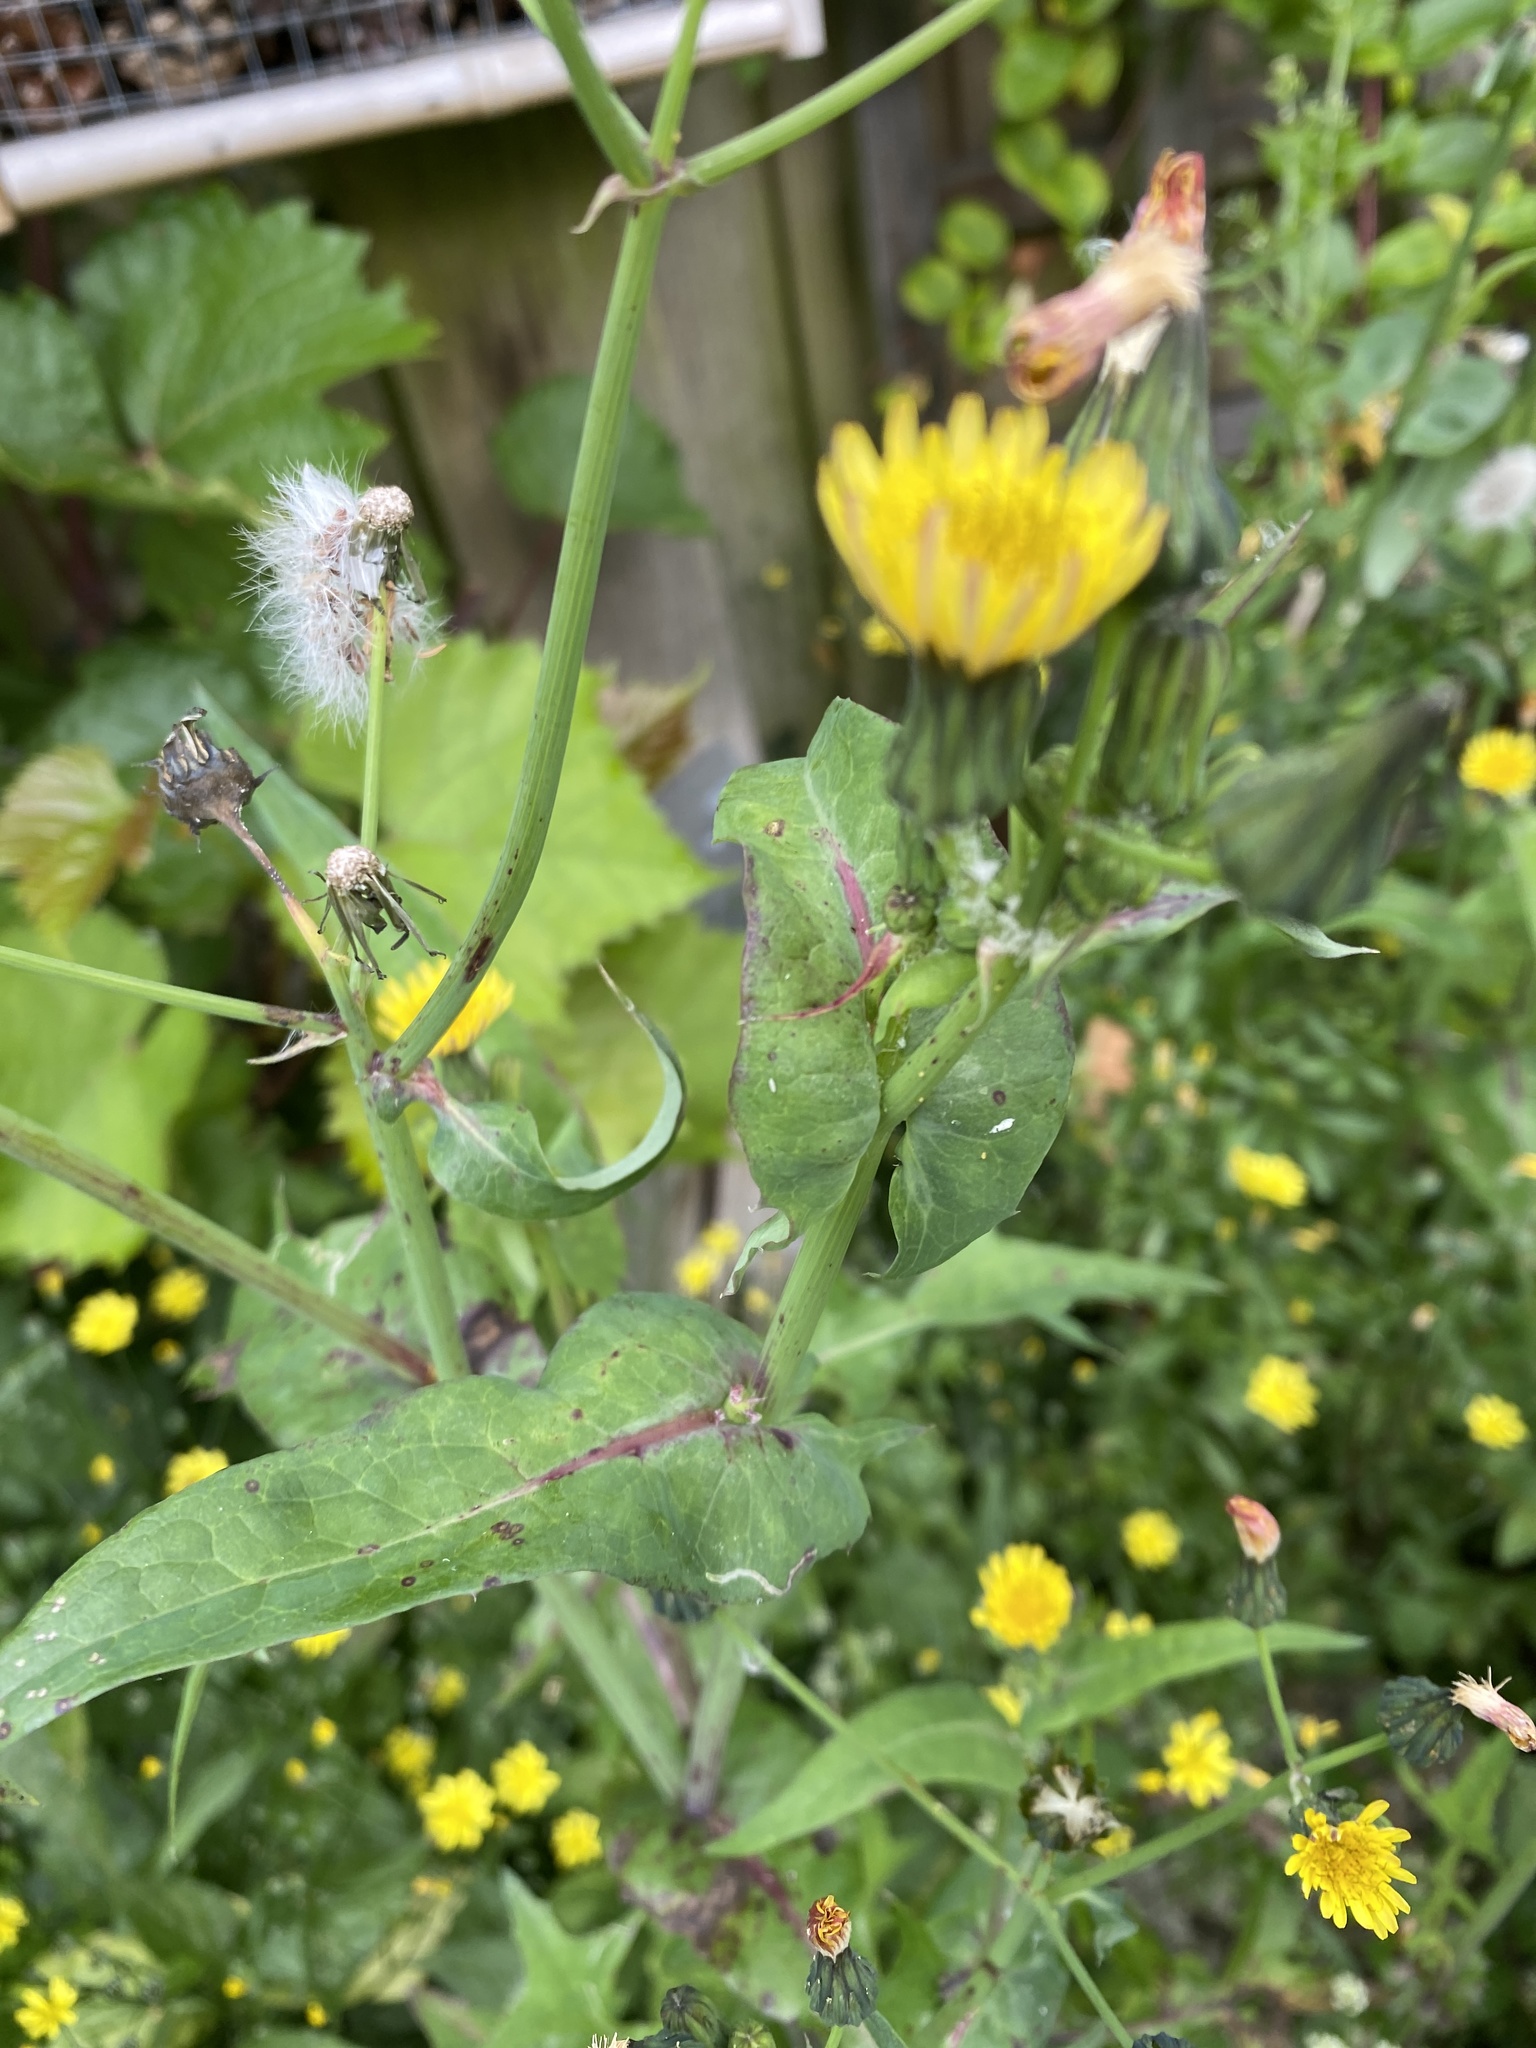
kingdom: Plantae
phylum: Tracheophyta
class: Magnoliopsida
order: Asterales
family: Asteraceae
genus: Sonchus
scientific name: Sonchus oleraceus
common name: Common sowthistle
